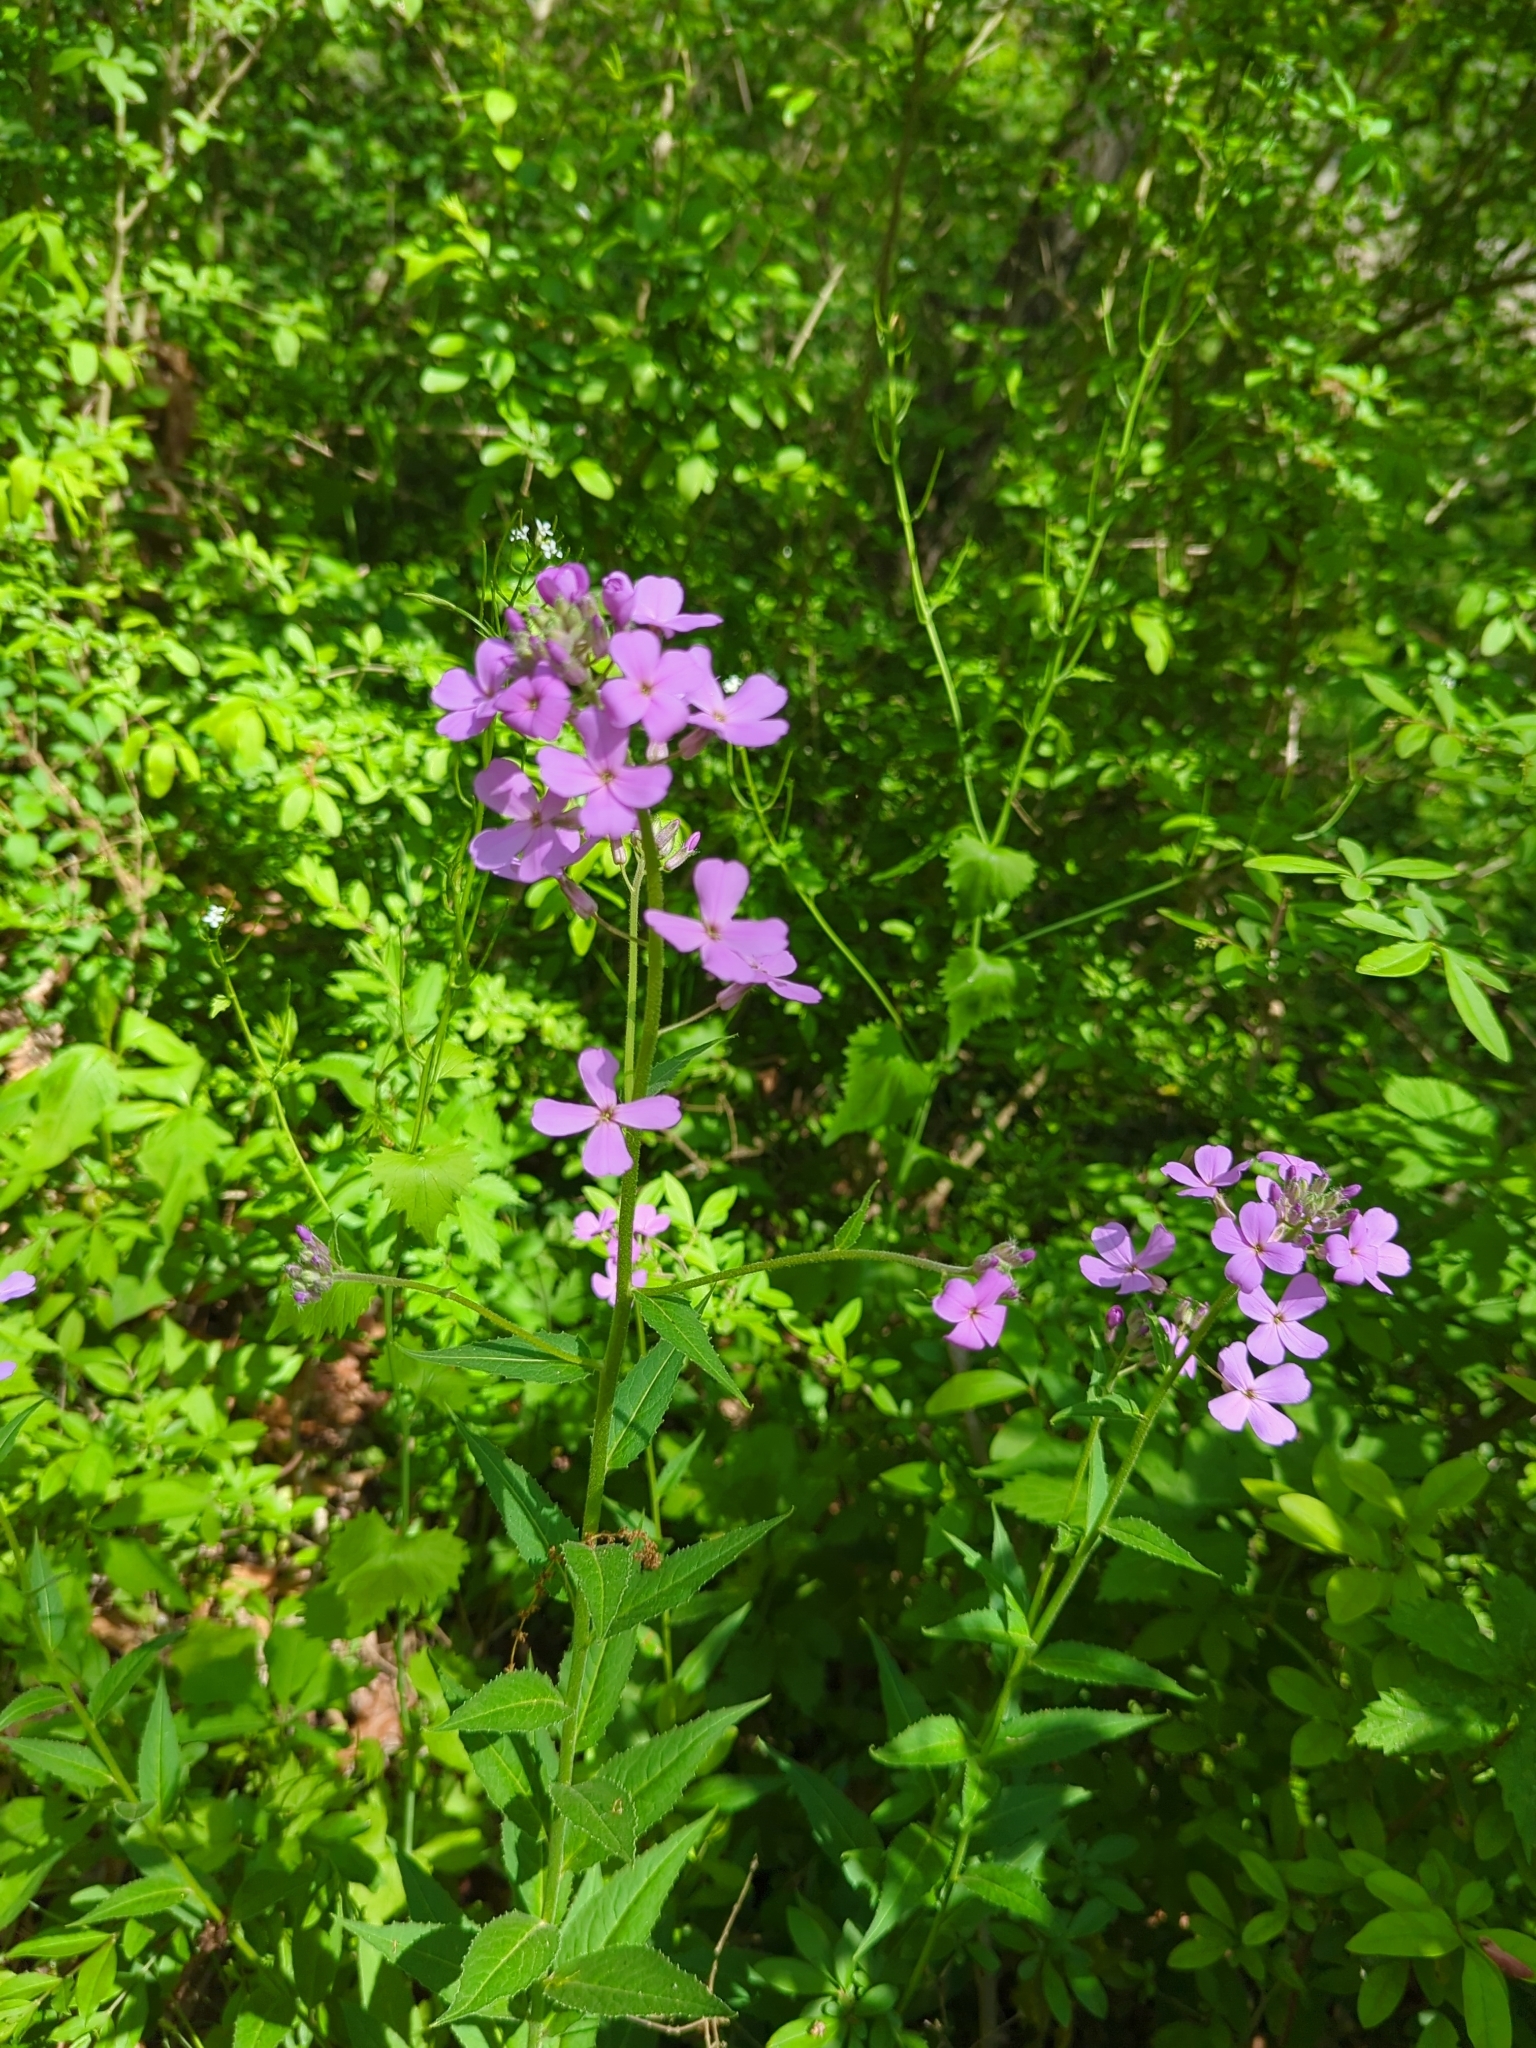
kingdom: Plantae
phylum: Tracheophyta
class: Magnoliopsida
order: Brassicales
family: Brassicaceae
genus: Hesperis
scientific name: Hesperis matronalis
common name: Dame's-violet
